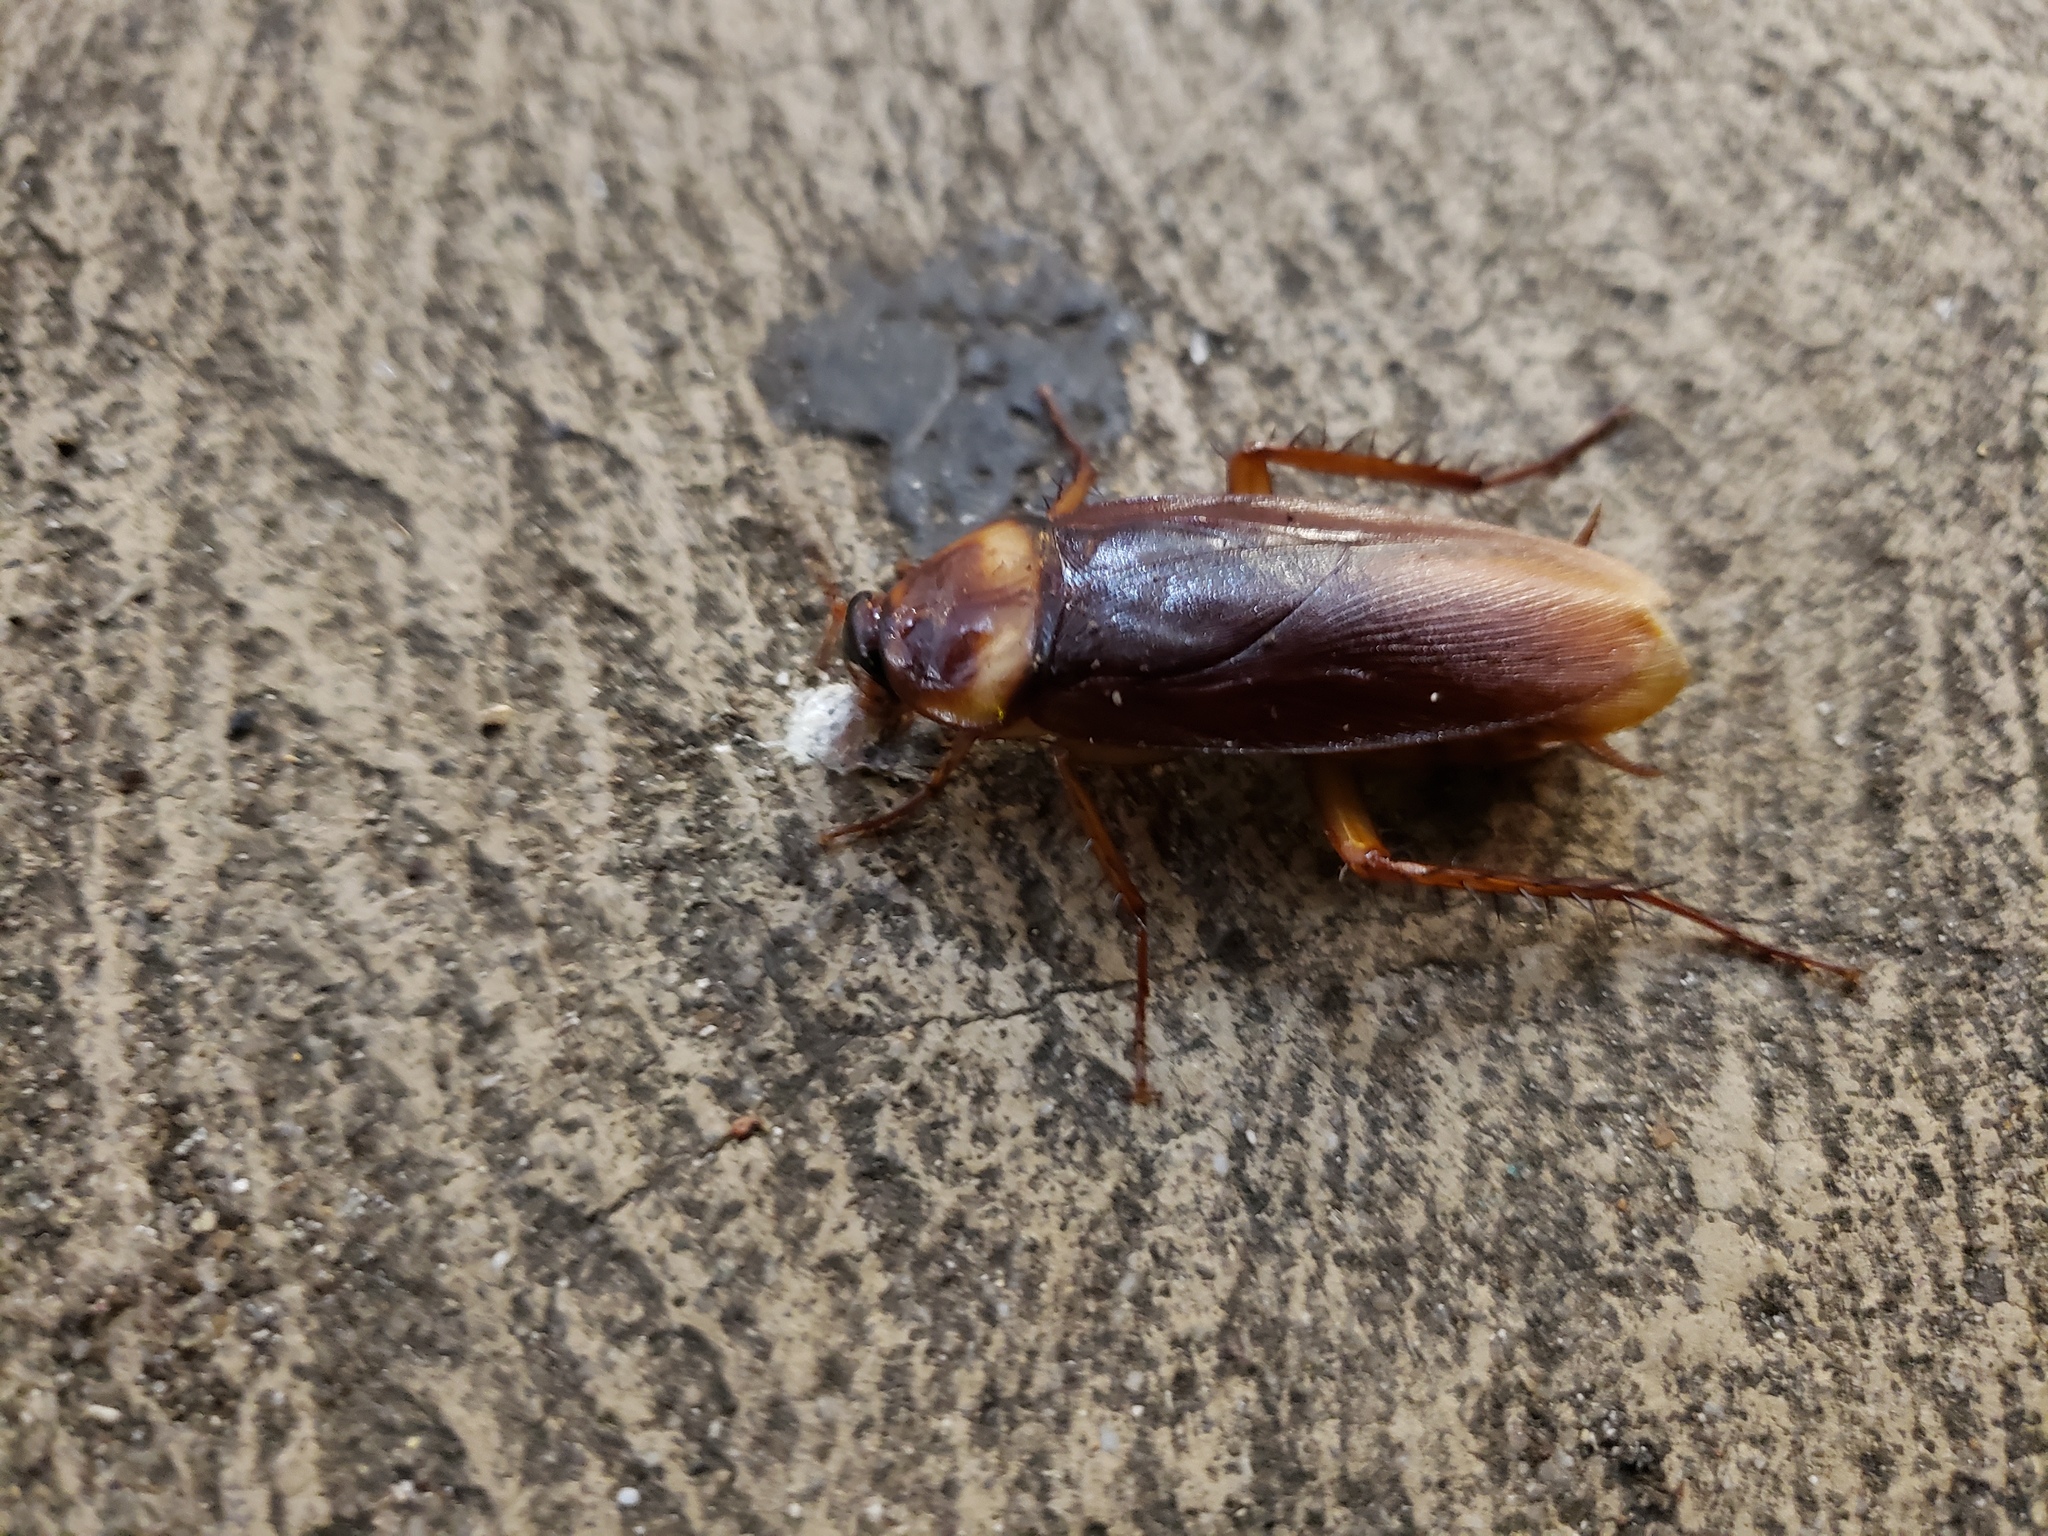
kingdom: Animalia
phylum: Arthropoda
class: Insecta
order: Blattodea
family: Blattidae
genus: Periplaneta
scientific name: Periplaneta americana
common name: American cockroach
